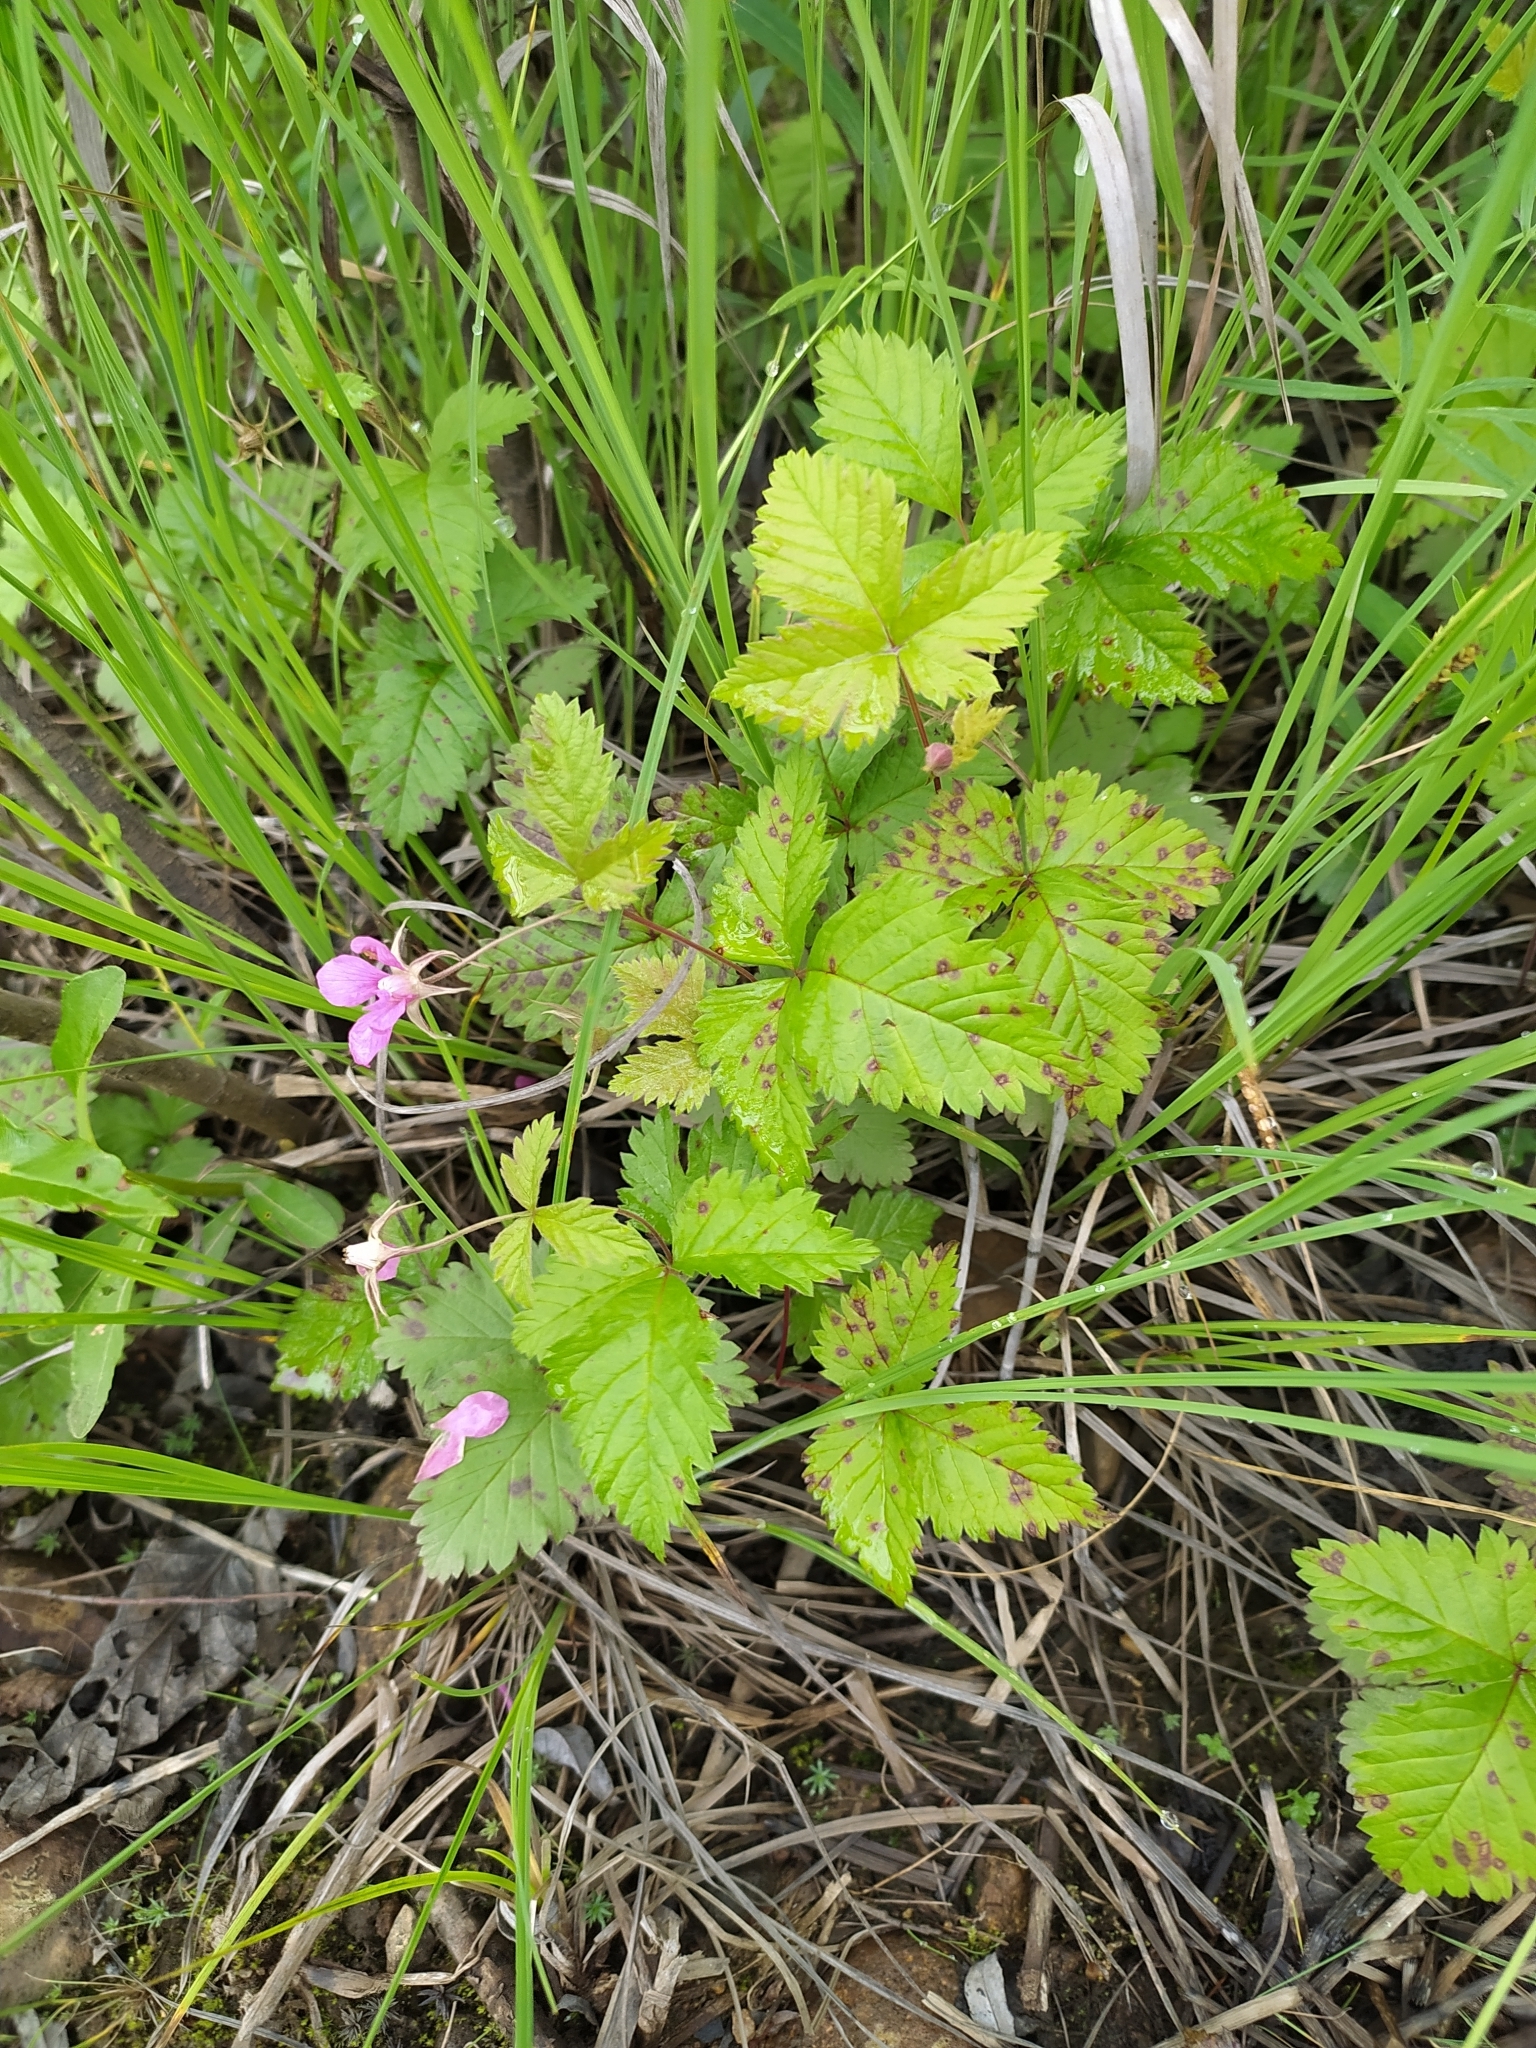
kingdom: Plantae
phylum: Tracheophyta
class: Magnoliopsida
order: Rosales
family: Rosaceae
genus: Rubus
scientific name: Rubus arcticus
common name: Arctic bramble
